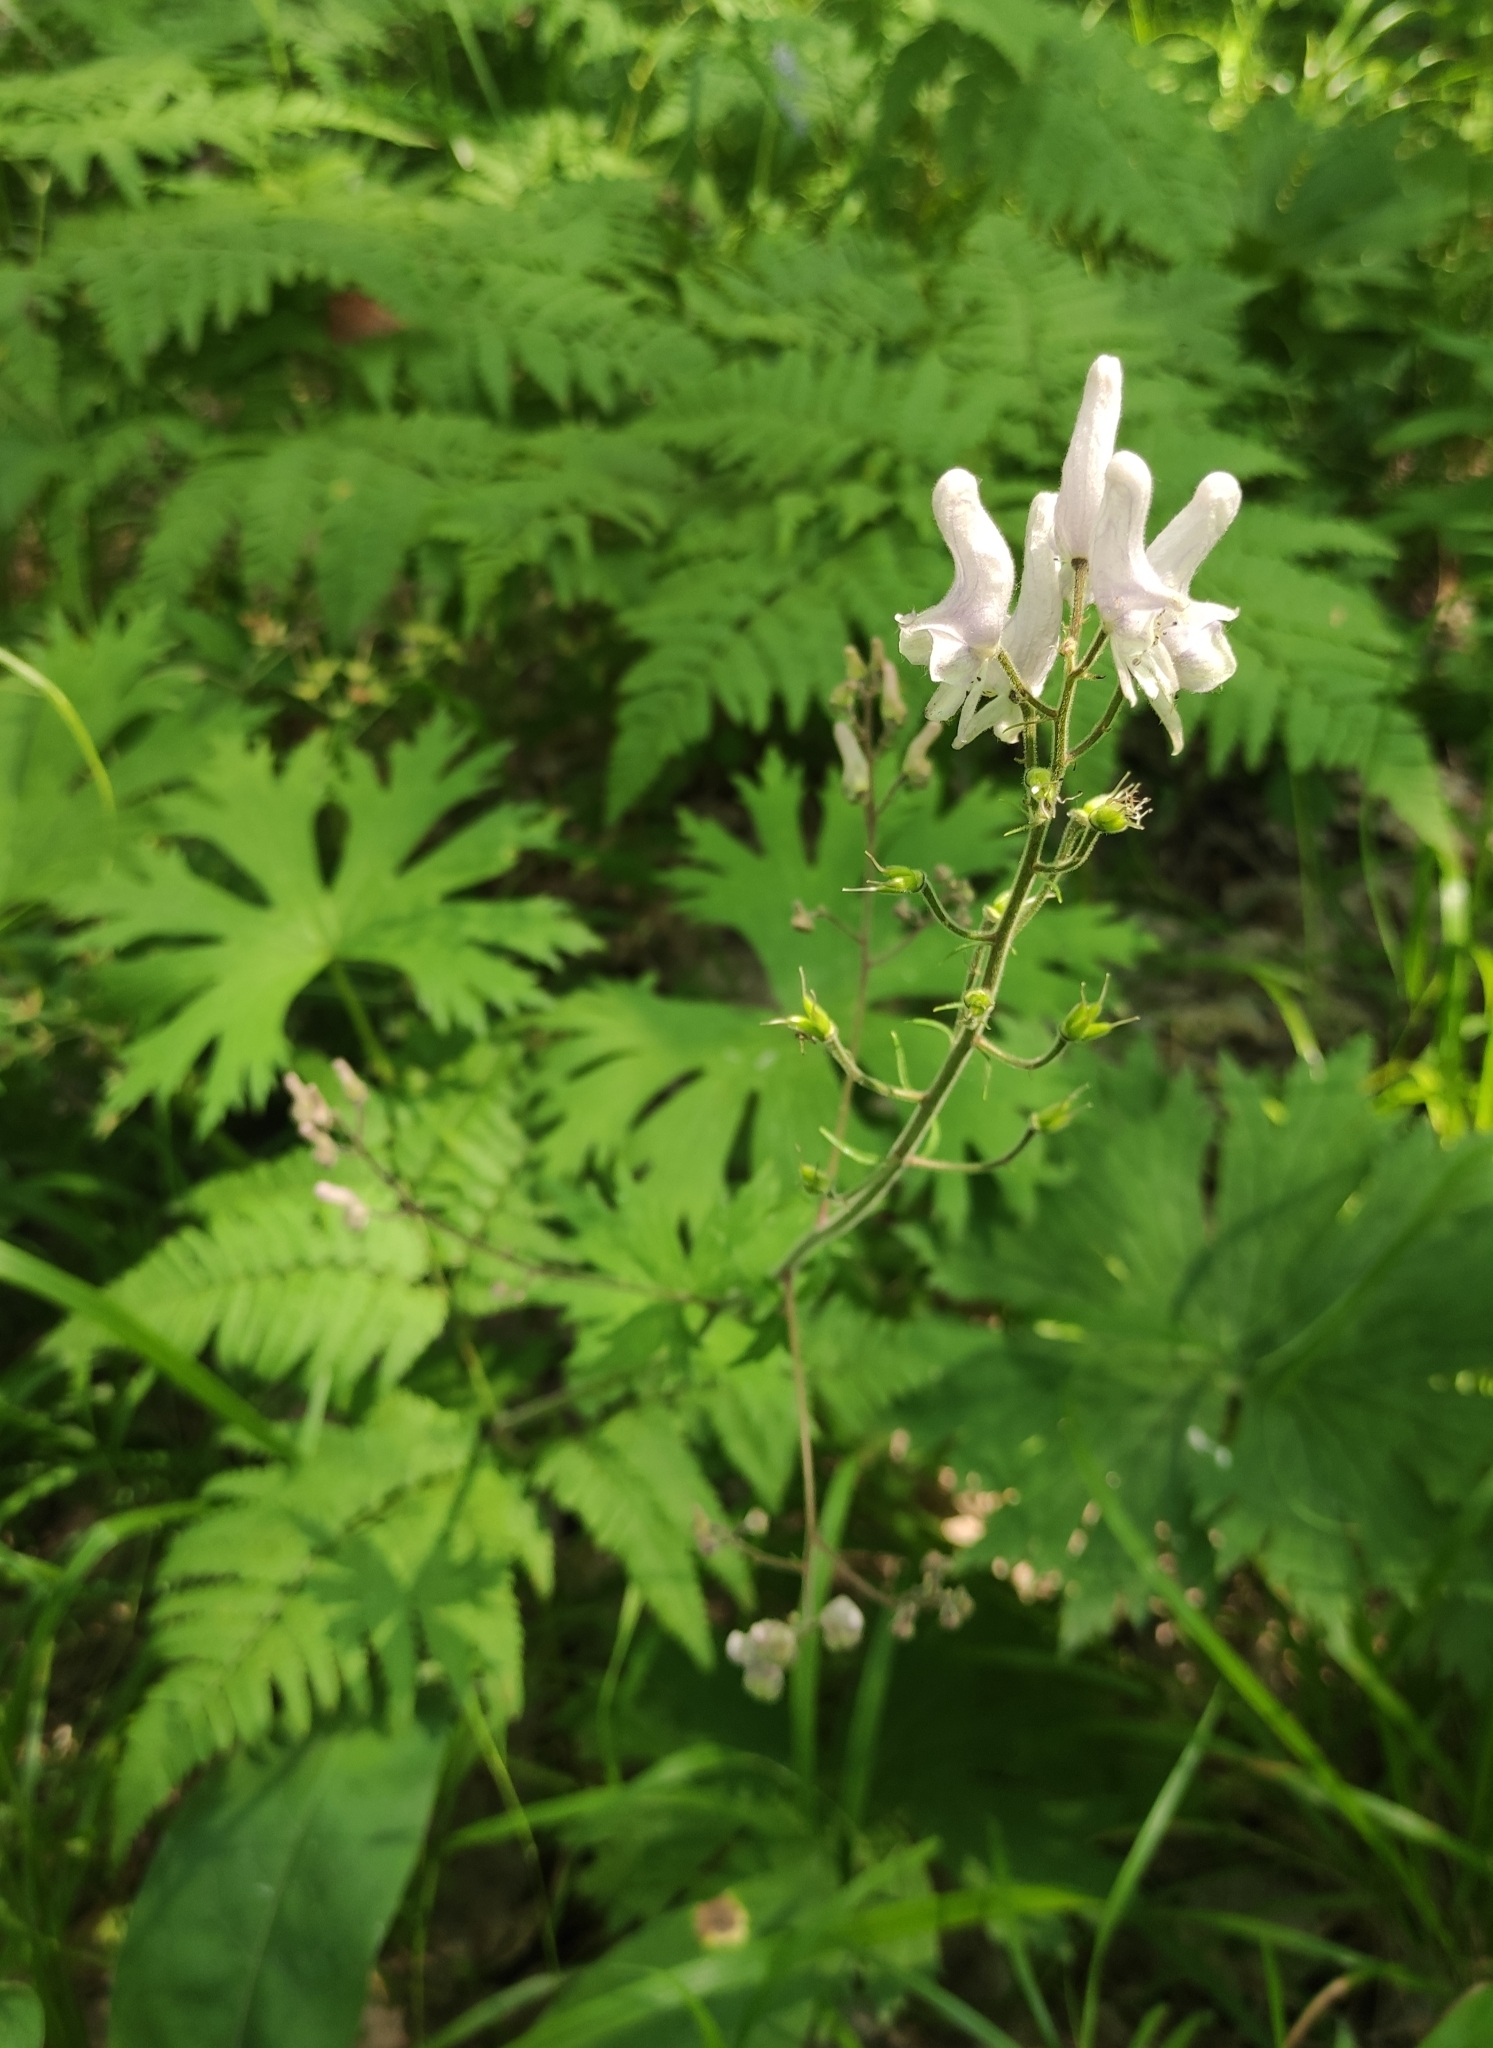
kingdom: Plantae
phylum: Tracheophyta
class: Magnoliopsida
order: Ranunculales
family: Ranunculaceae
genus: Aconitum
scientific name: Aconitum septentrionale
